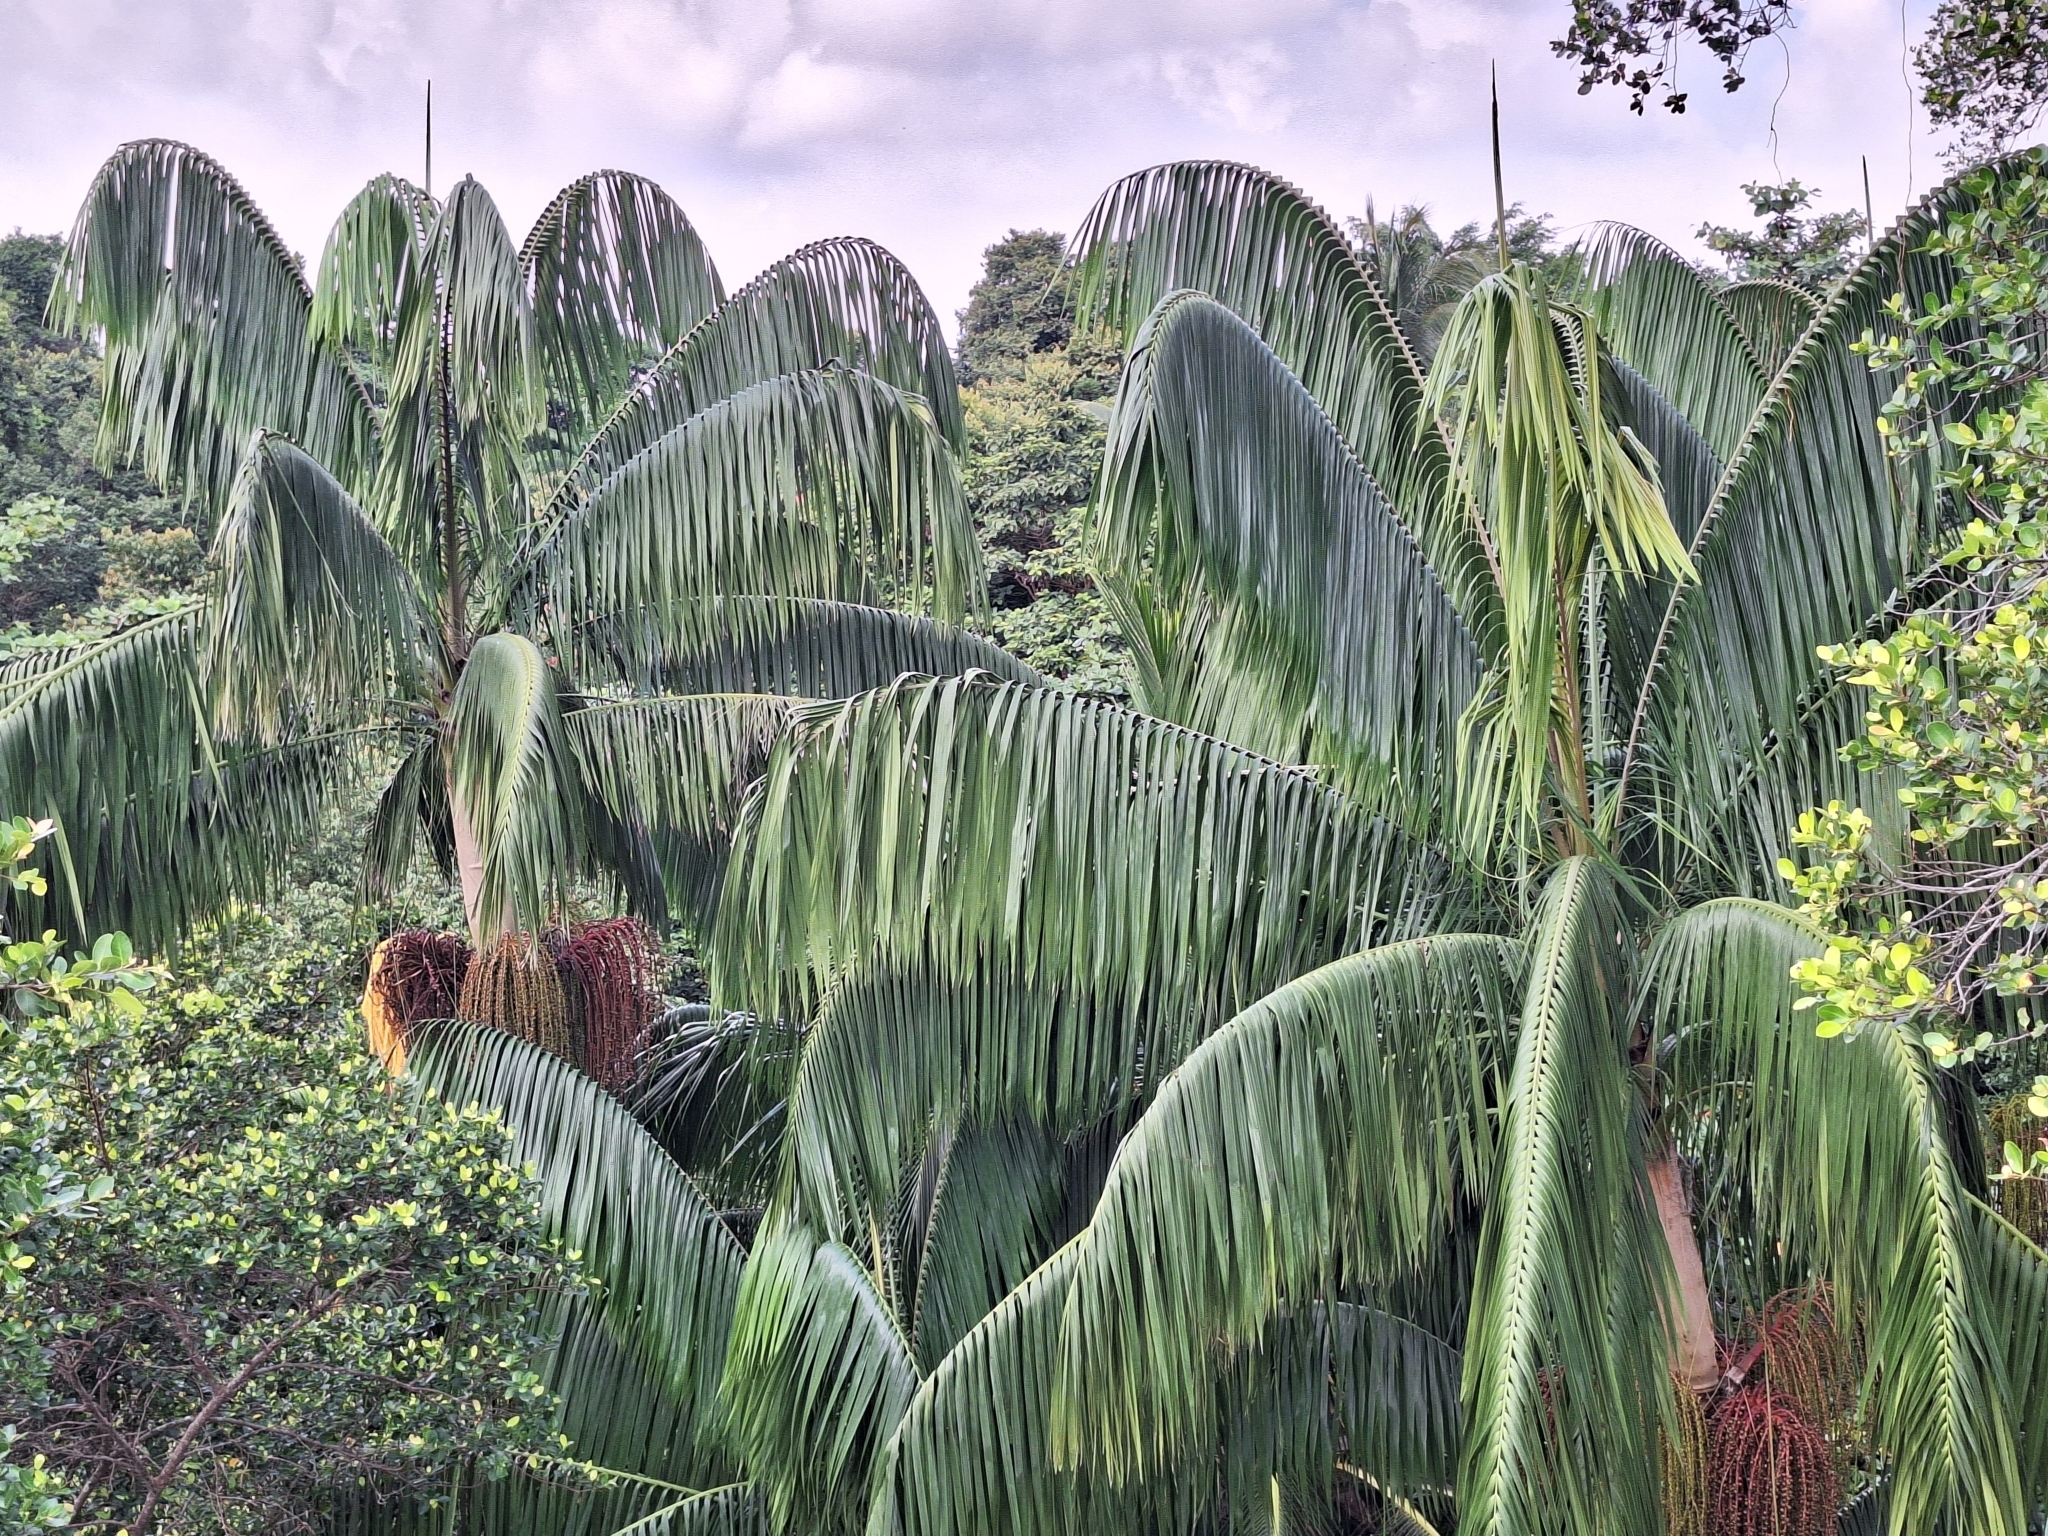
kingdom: Plantae
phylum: Tracheophyta
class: Liliopsida
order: Arecales
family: Arecaceae
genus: Oncosperma
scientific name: Oncosperma tigillarium
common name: Nibong
